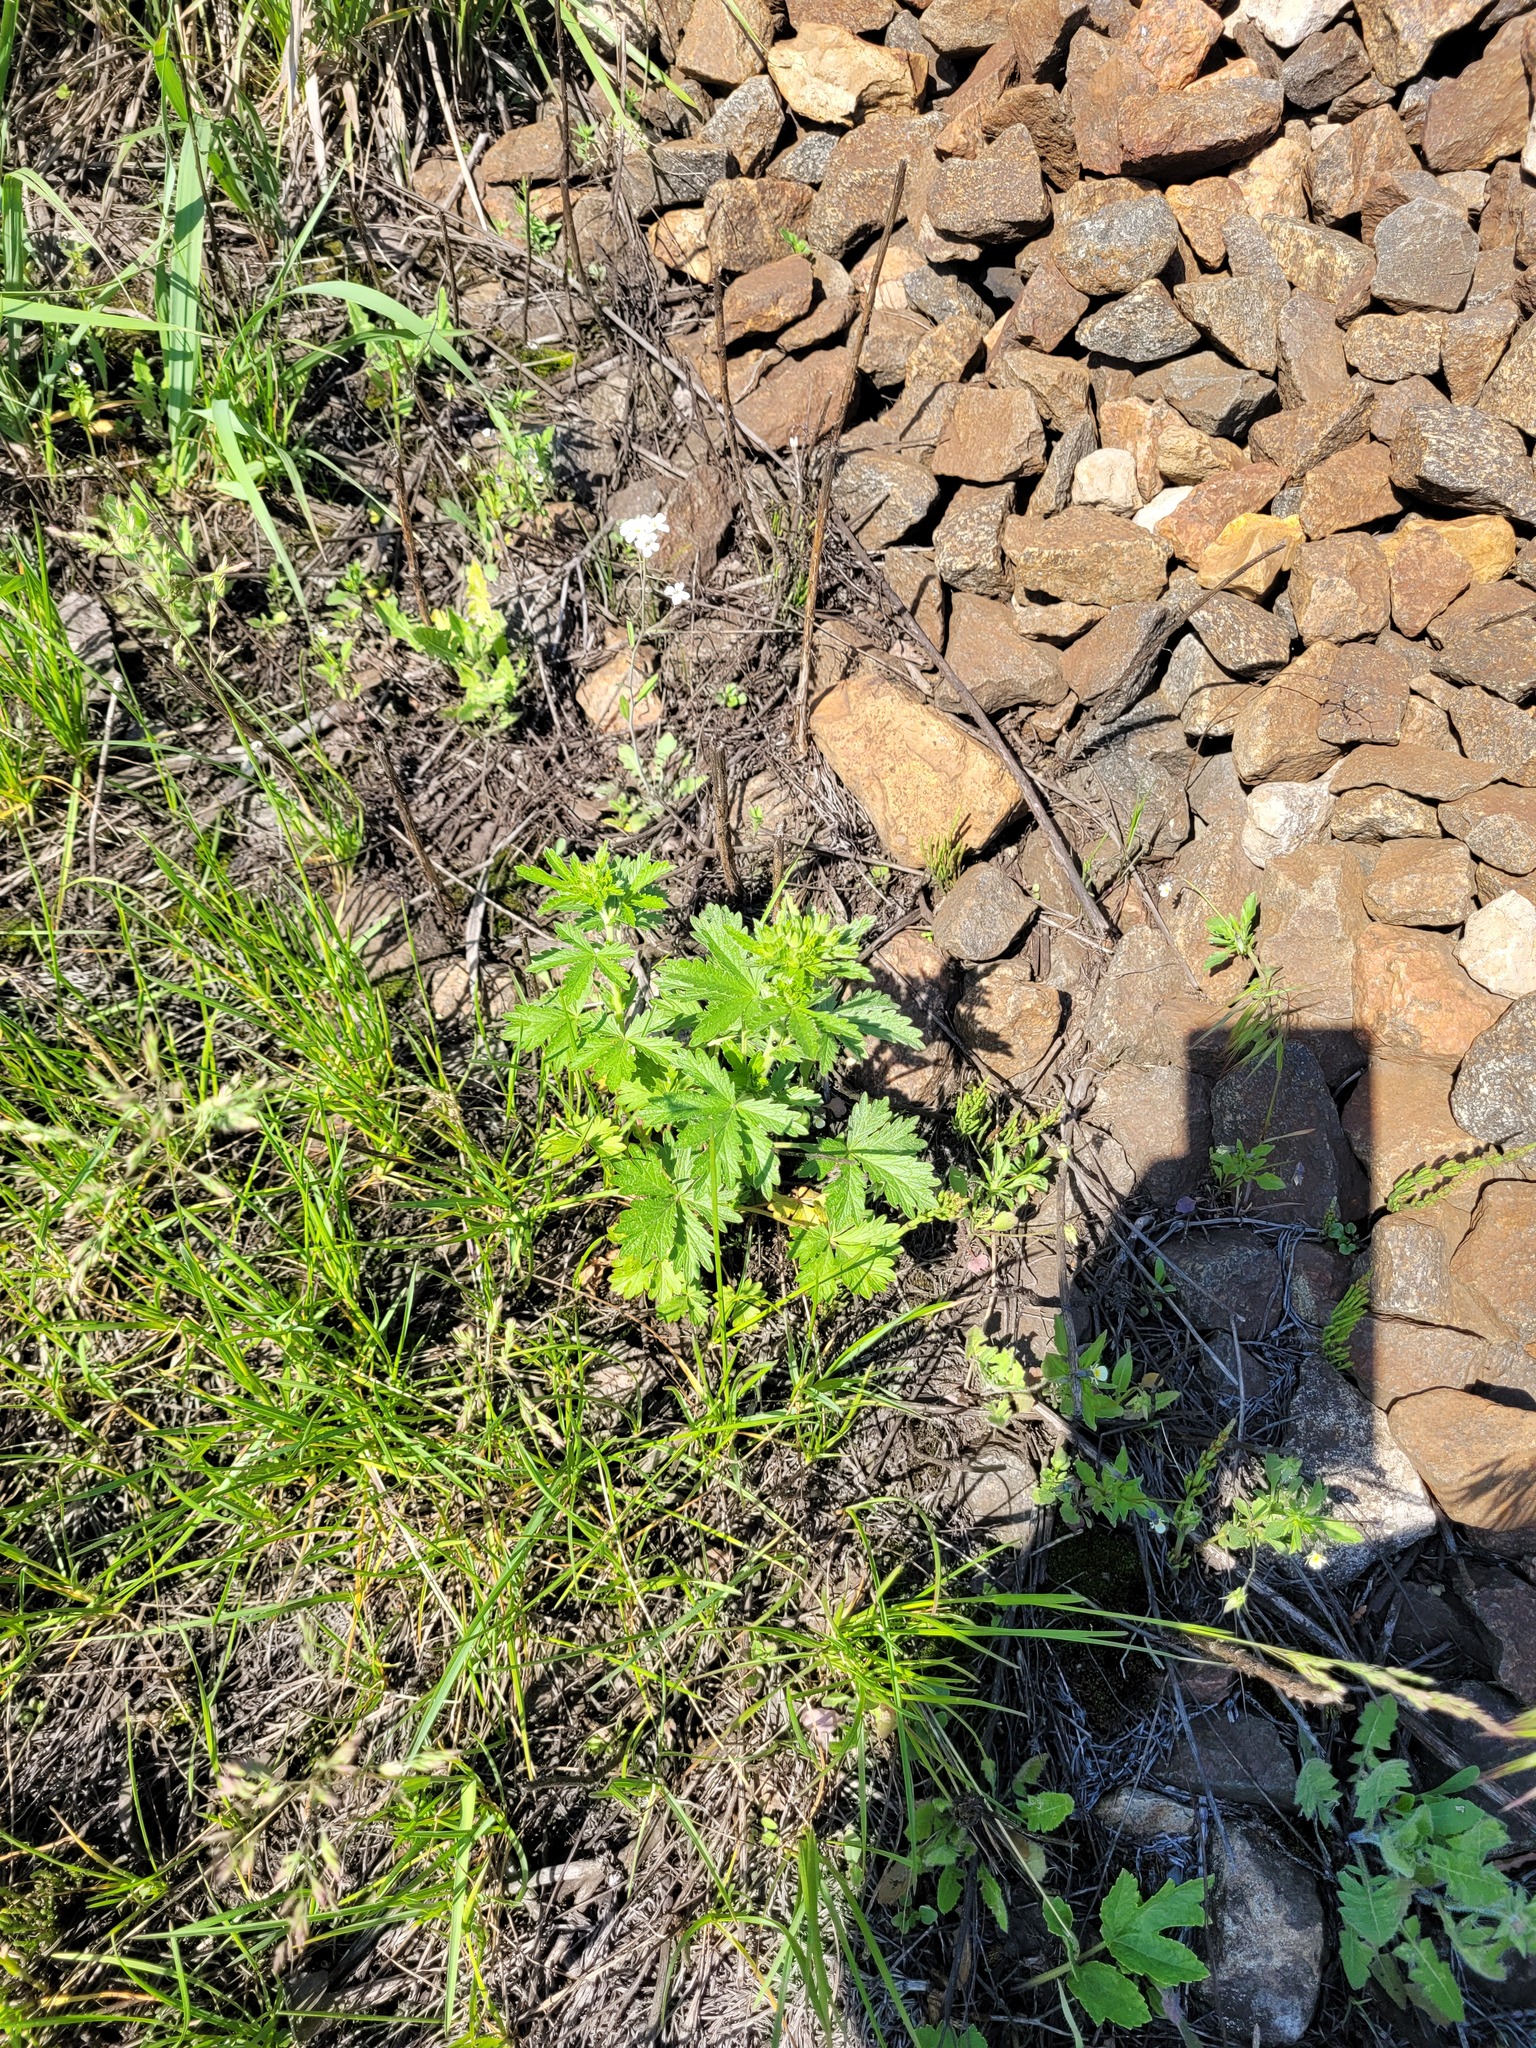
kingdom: Plantae
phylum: Tracheophyta
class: Magnoliopsida
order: Rosales
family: Rosaceae
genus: Potentilla
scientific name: Potentilla intermedia
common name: Downy cinquefoil
